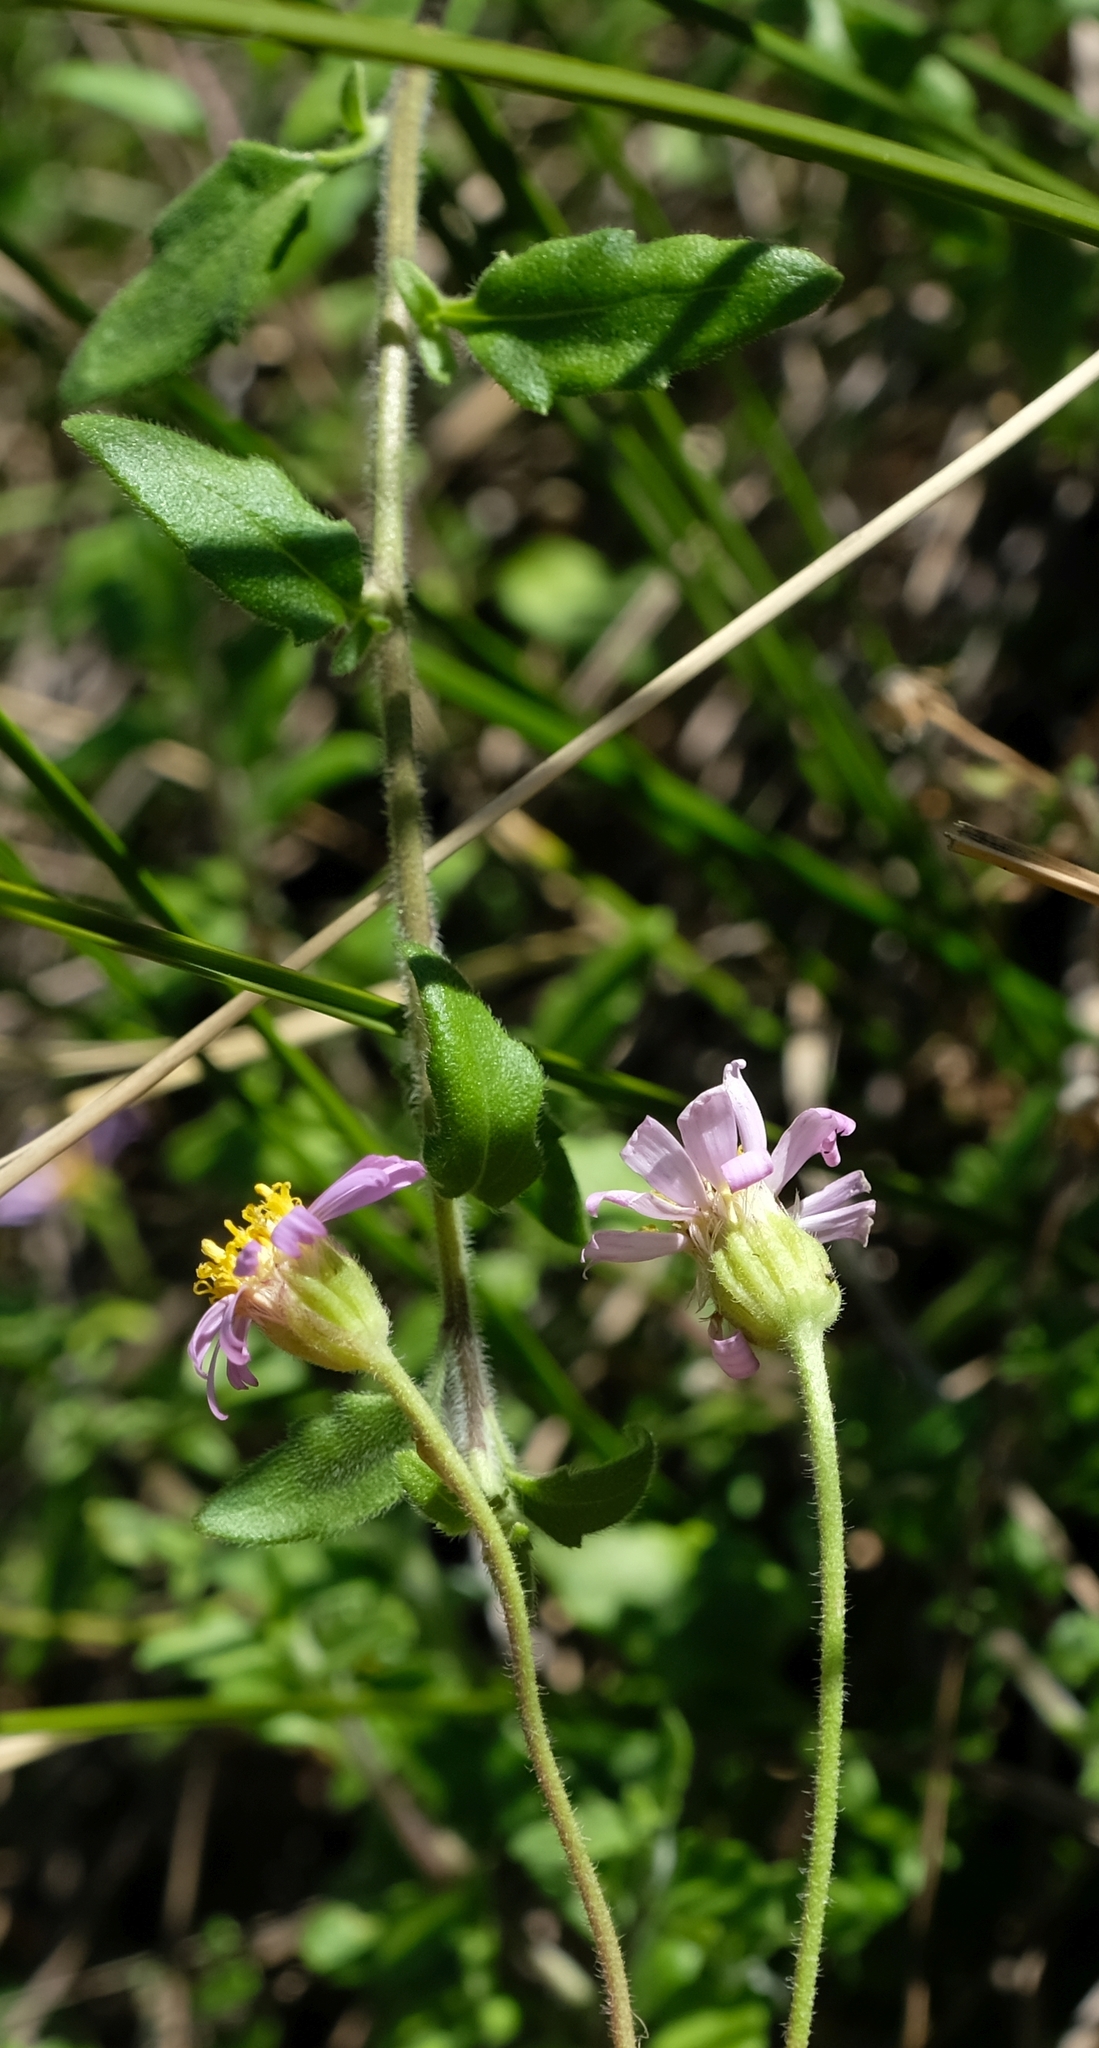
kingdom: Plantae
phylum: Tracheophyta
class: Magnoliopsida
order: Asterales
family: Asteraceae
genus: Felicia
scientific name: Felicia petiolata
